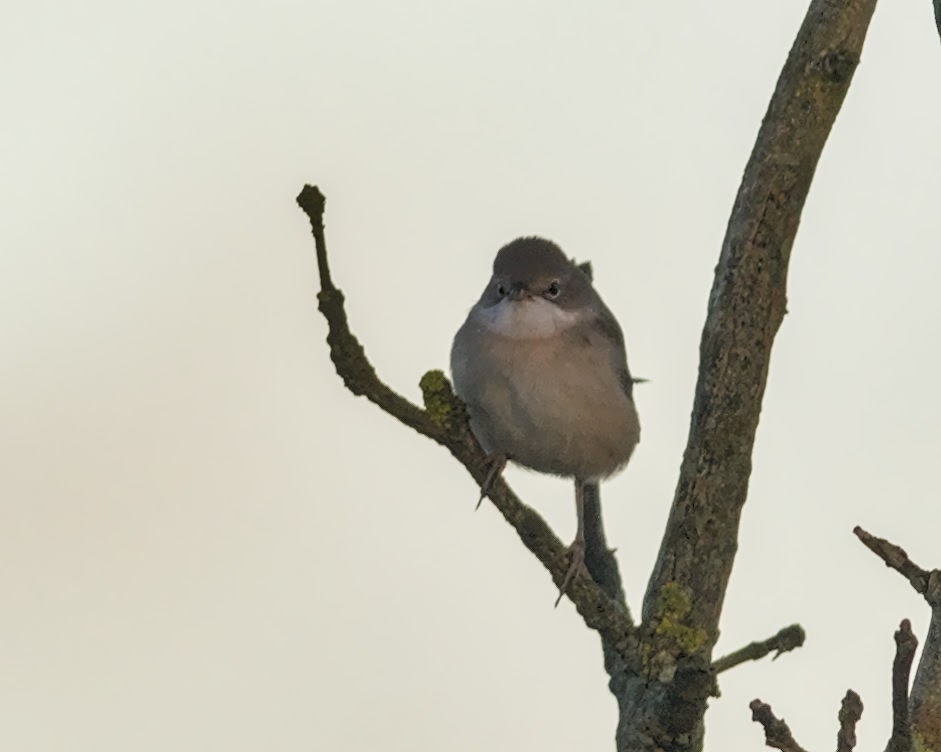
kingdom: Animalia
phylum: Chordata
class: Aves
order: Passeriformes
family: Sylviidae
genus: Sylvia
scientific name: Sylvia communis
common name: Common whitethroat
